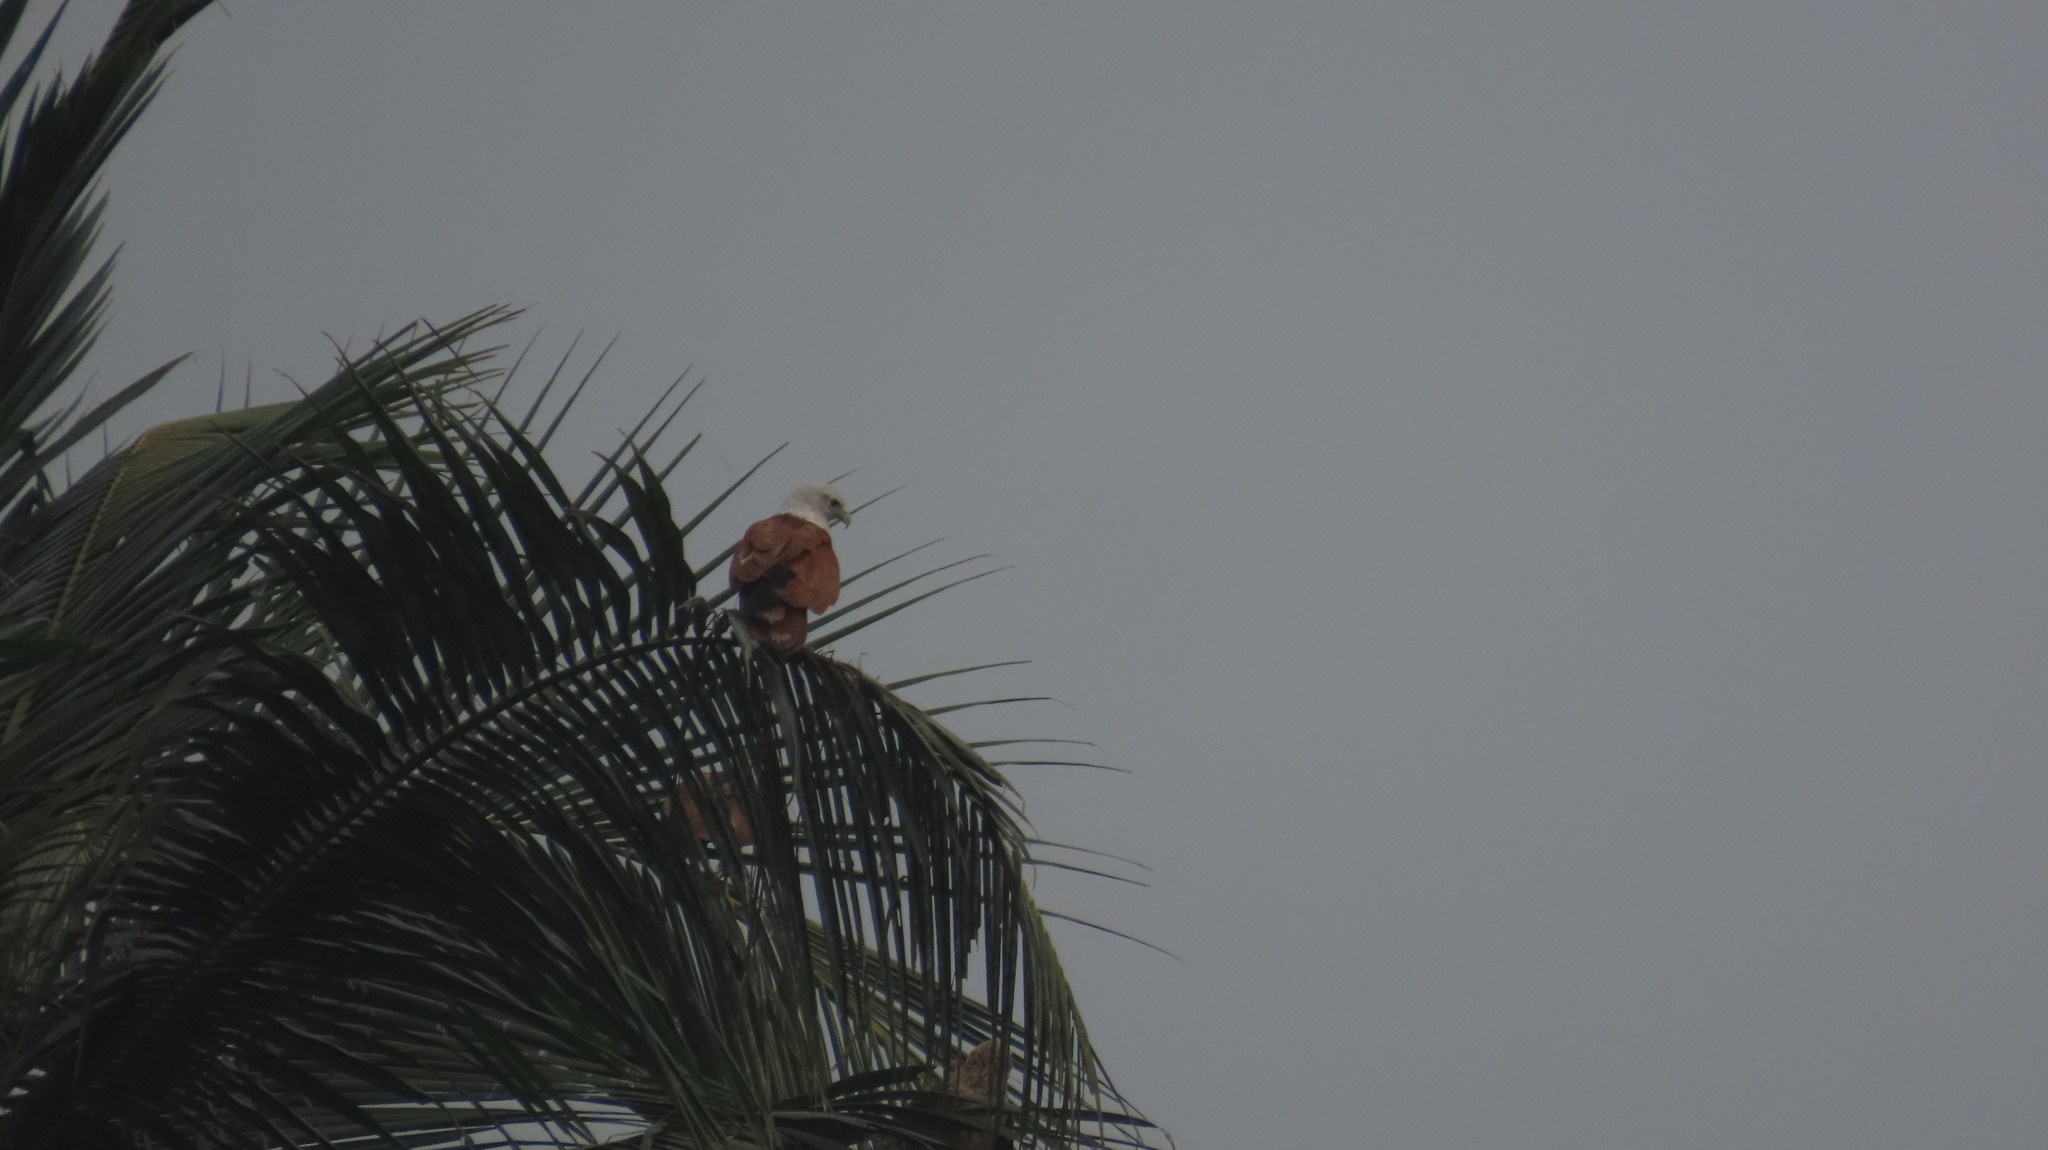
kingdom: Animalia
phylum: Chordata
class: Aves
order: Accipitriformes
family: Accipitridae
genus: Haliastur
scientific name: Haliastur indus
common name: Brahminy kite
